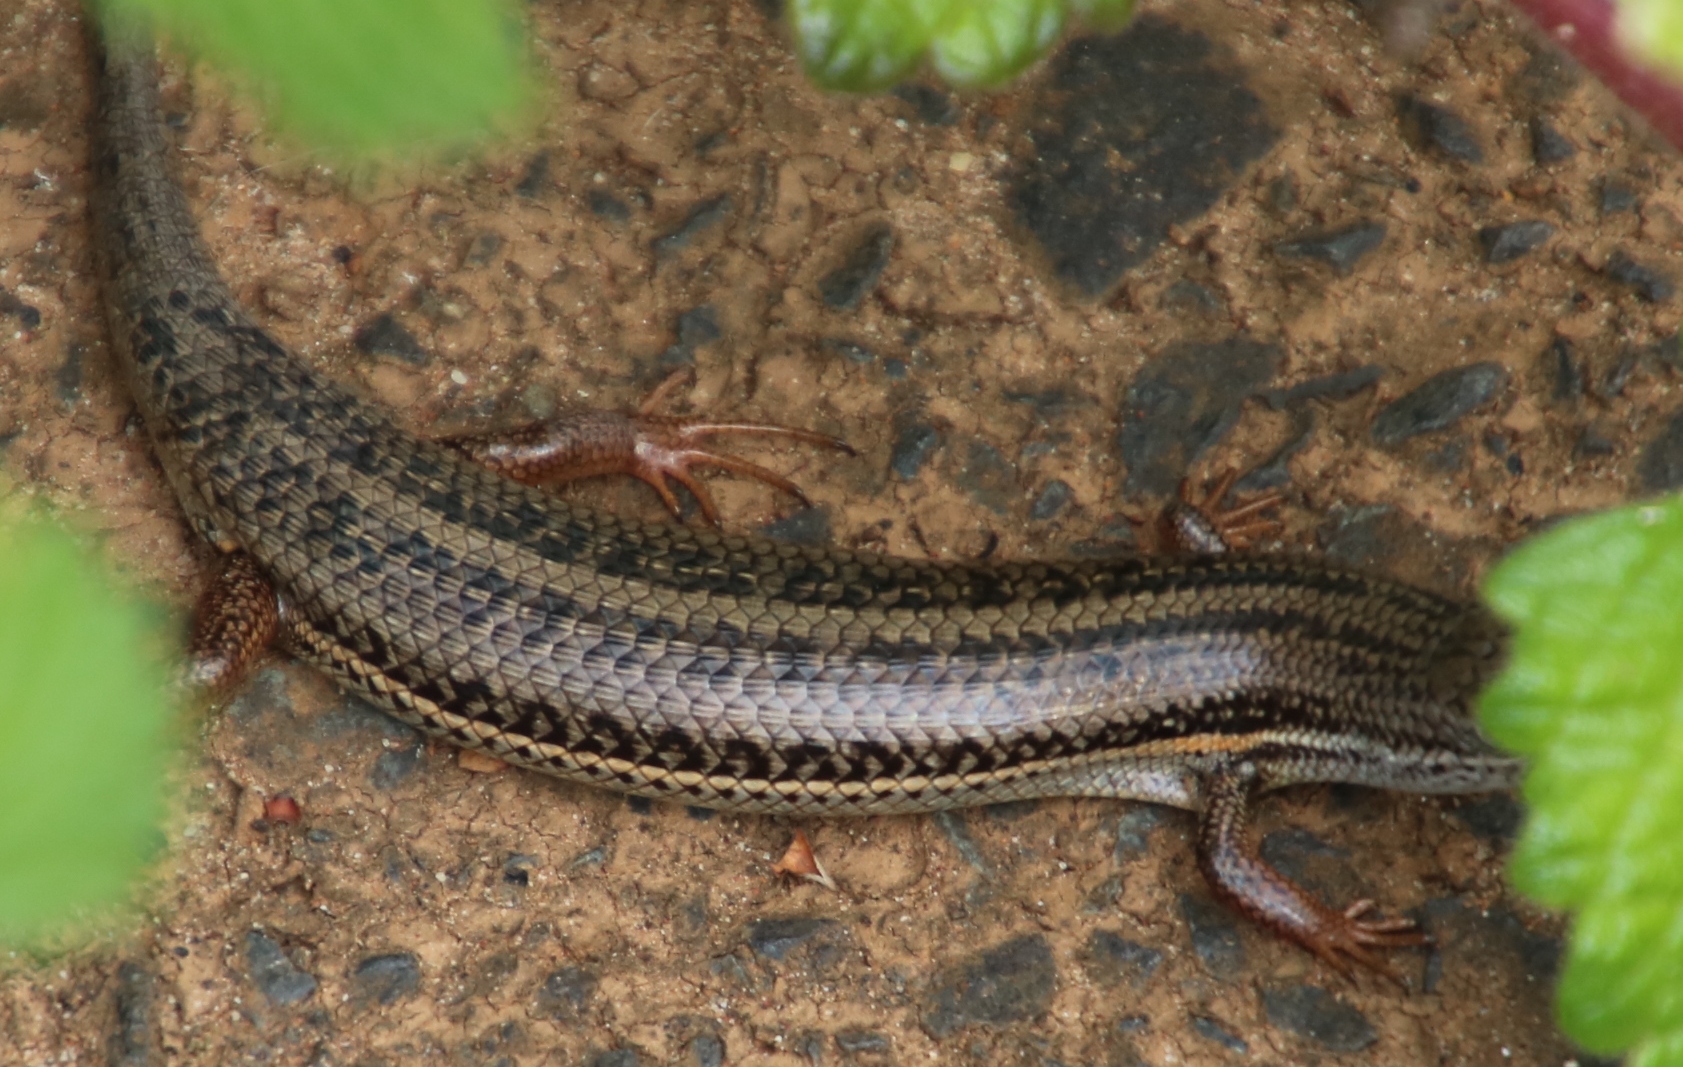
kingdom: Animalia
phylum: Chordata
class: Squamata
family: Scincidae
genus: Trachylepis
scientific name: Trachylepis homalocephala
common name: Red-sided skink
